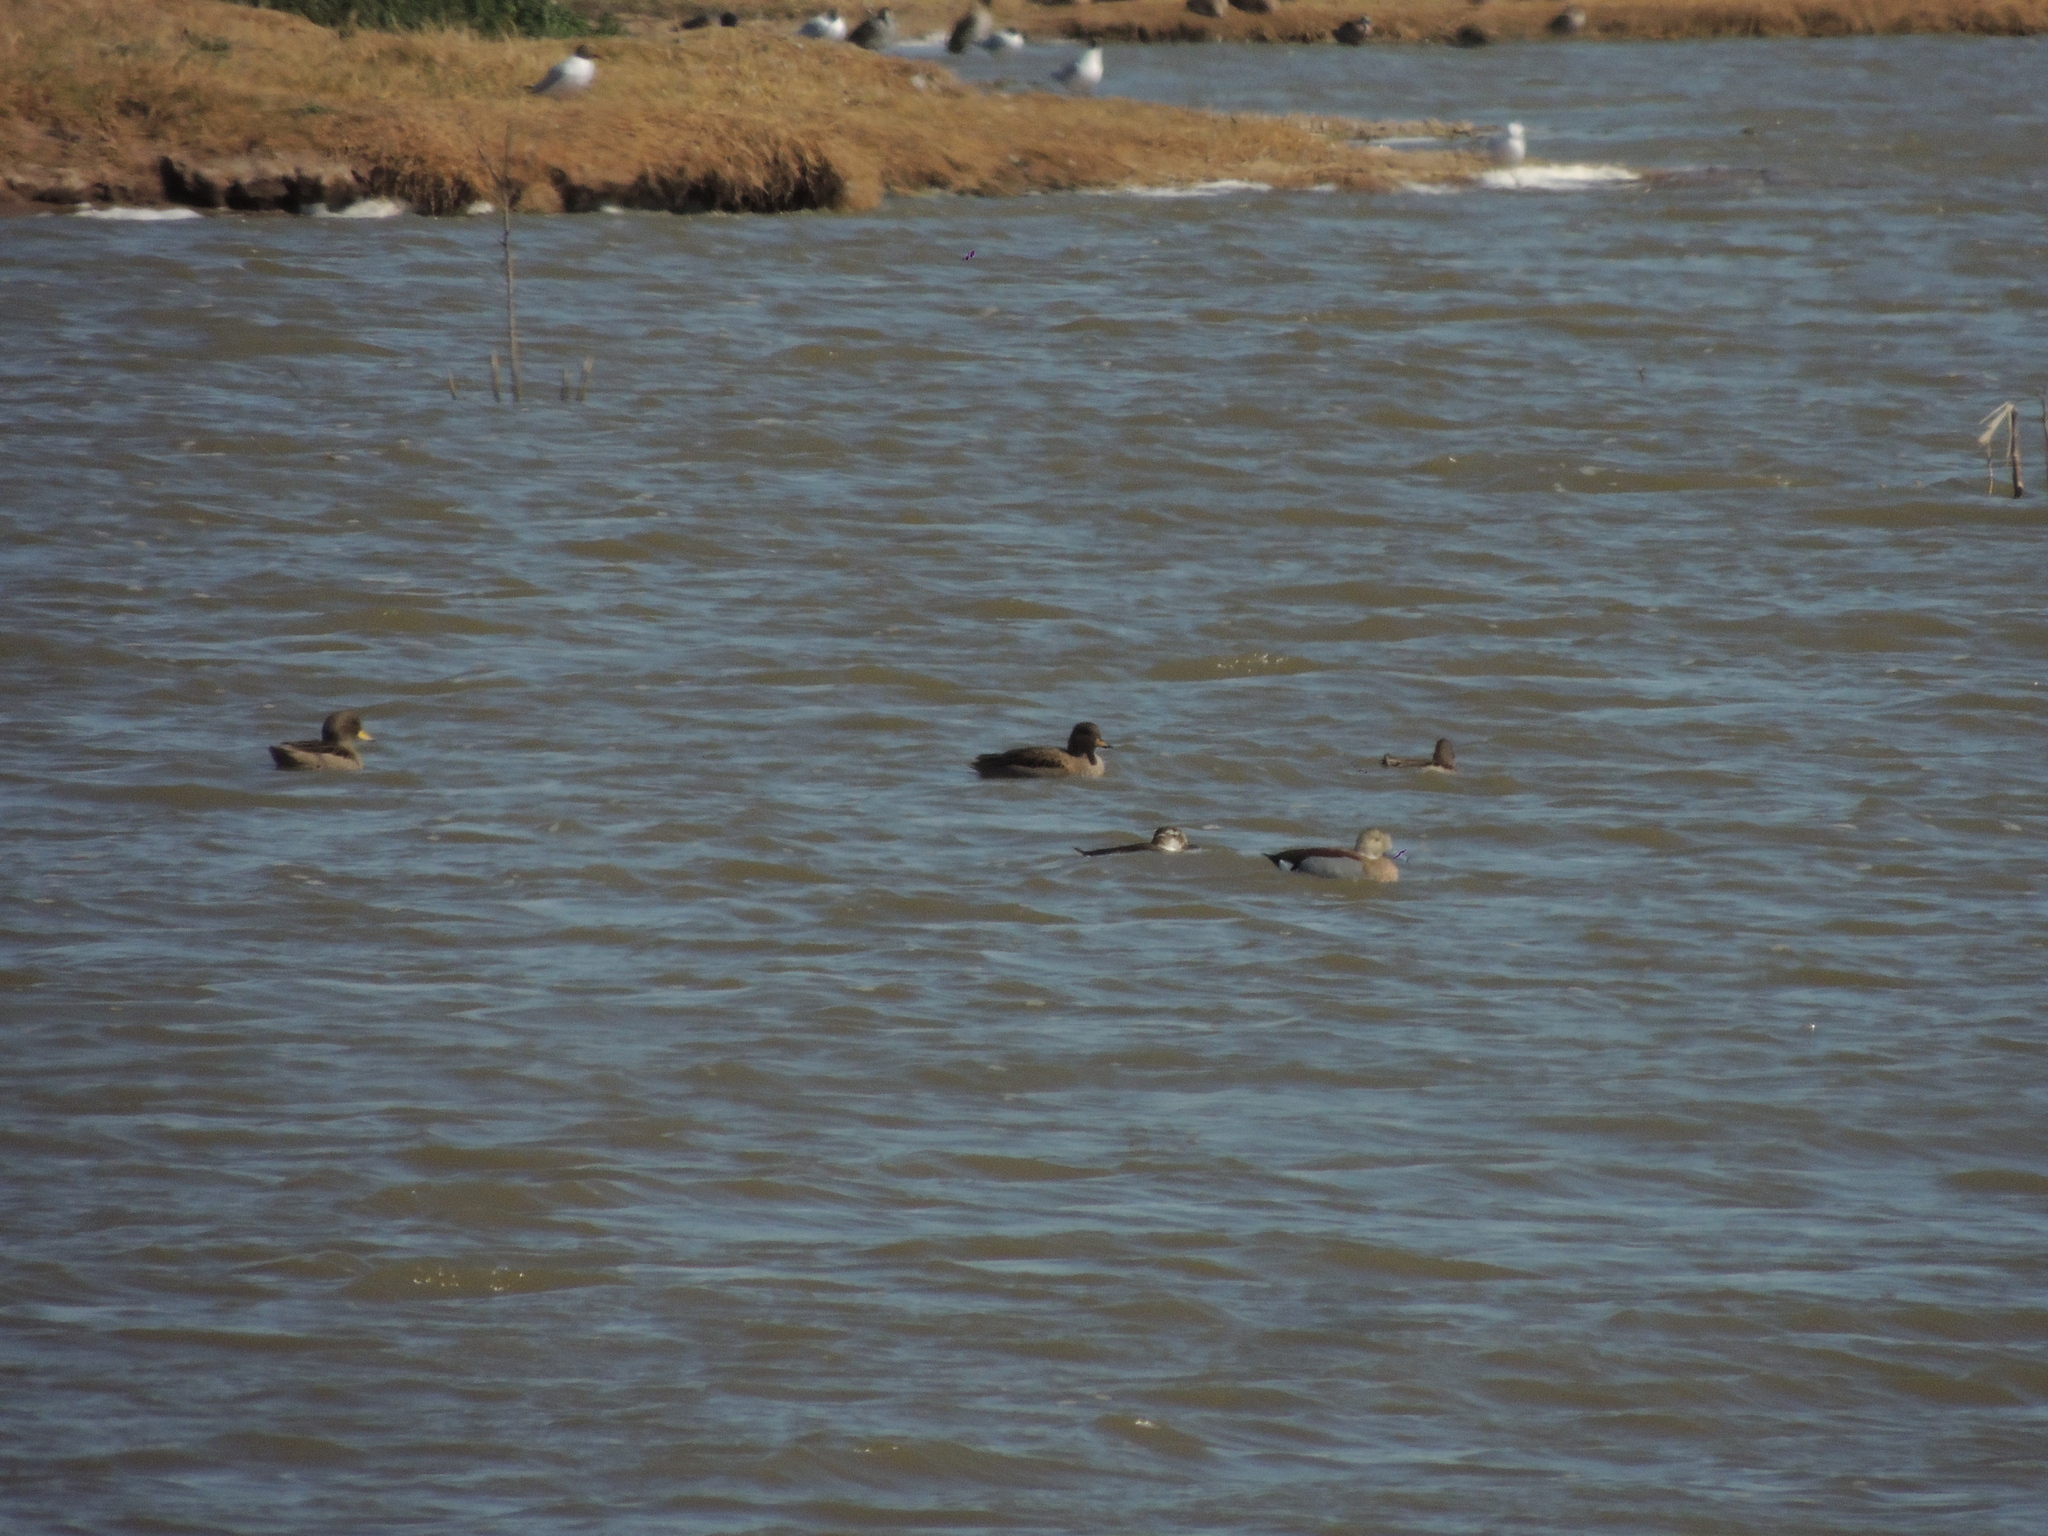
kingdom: Animalia
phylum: Chordata
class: Aves
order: Anseriformes
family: Anatidae
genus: Anas
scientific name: Anas flavirostris
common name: Yellow-billed teal
